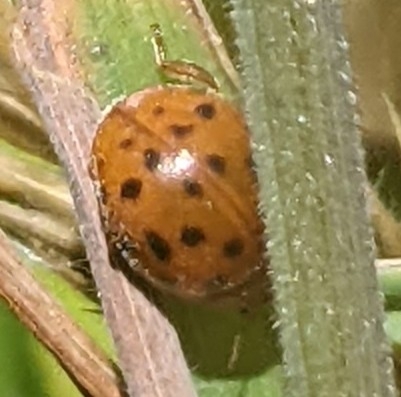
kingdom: Animalia
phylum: Arthropoda
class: Insecta
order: Coleoptera
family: Coccinellidae
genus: Subcoccinella
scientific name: Subcoccinella vigintiquatuorpunctata
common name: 24-spot ladybird
